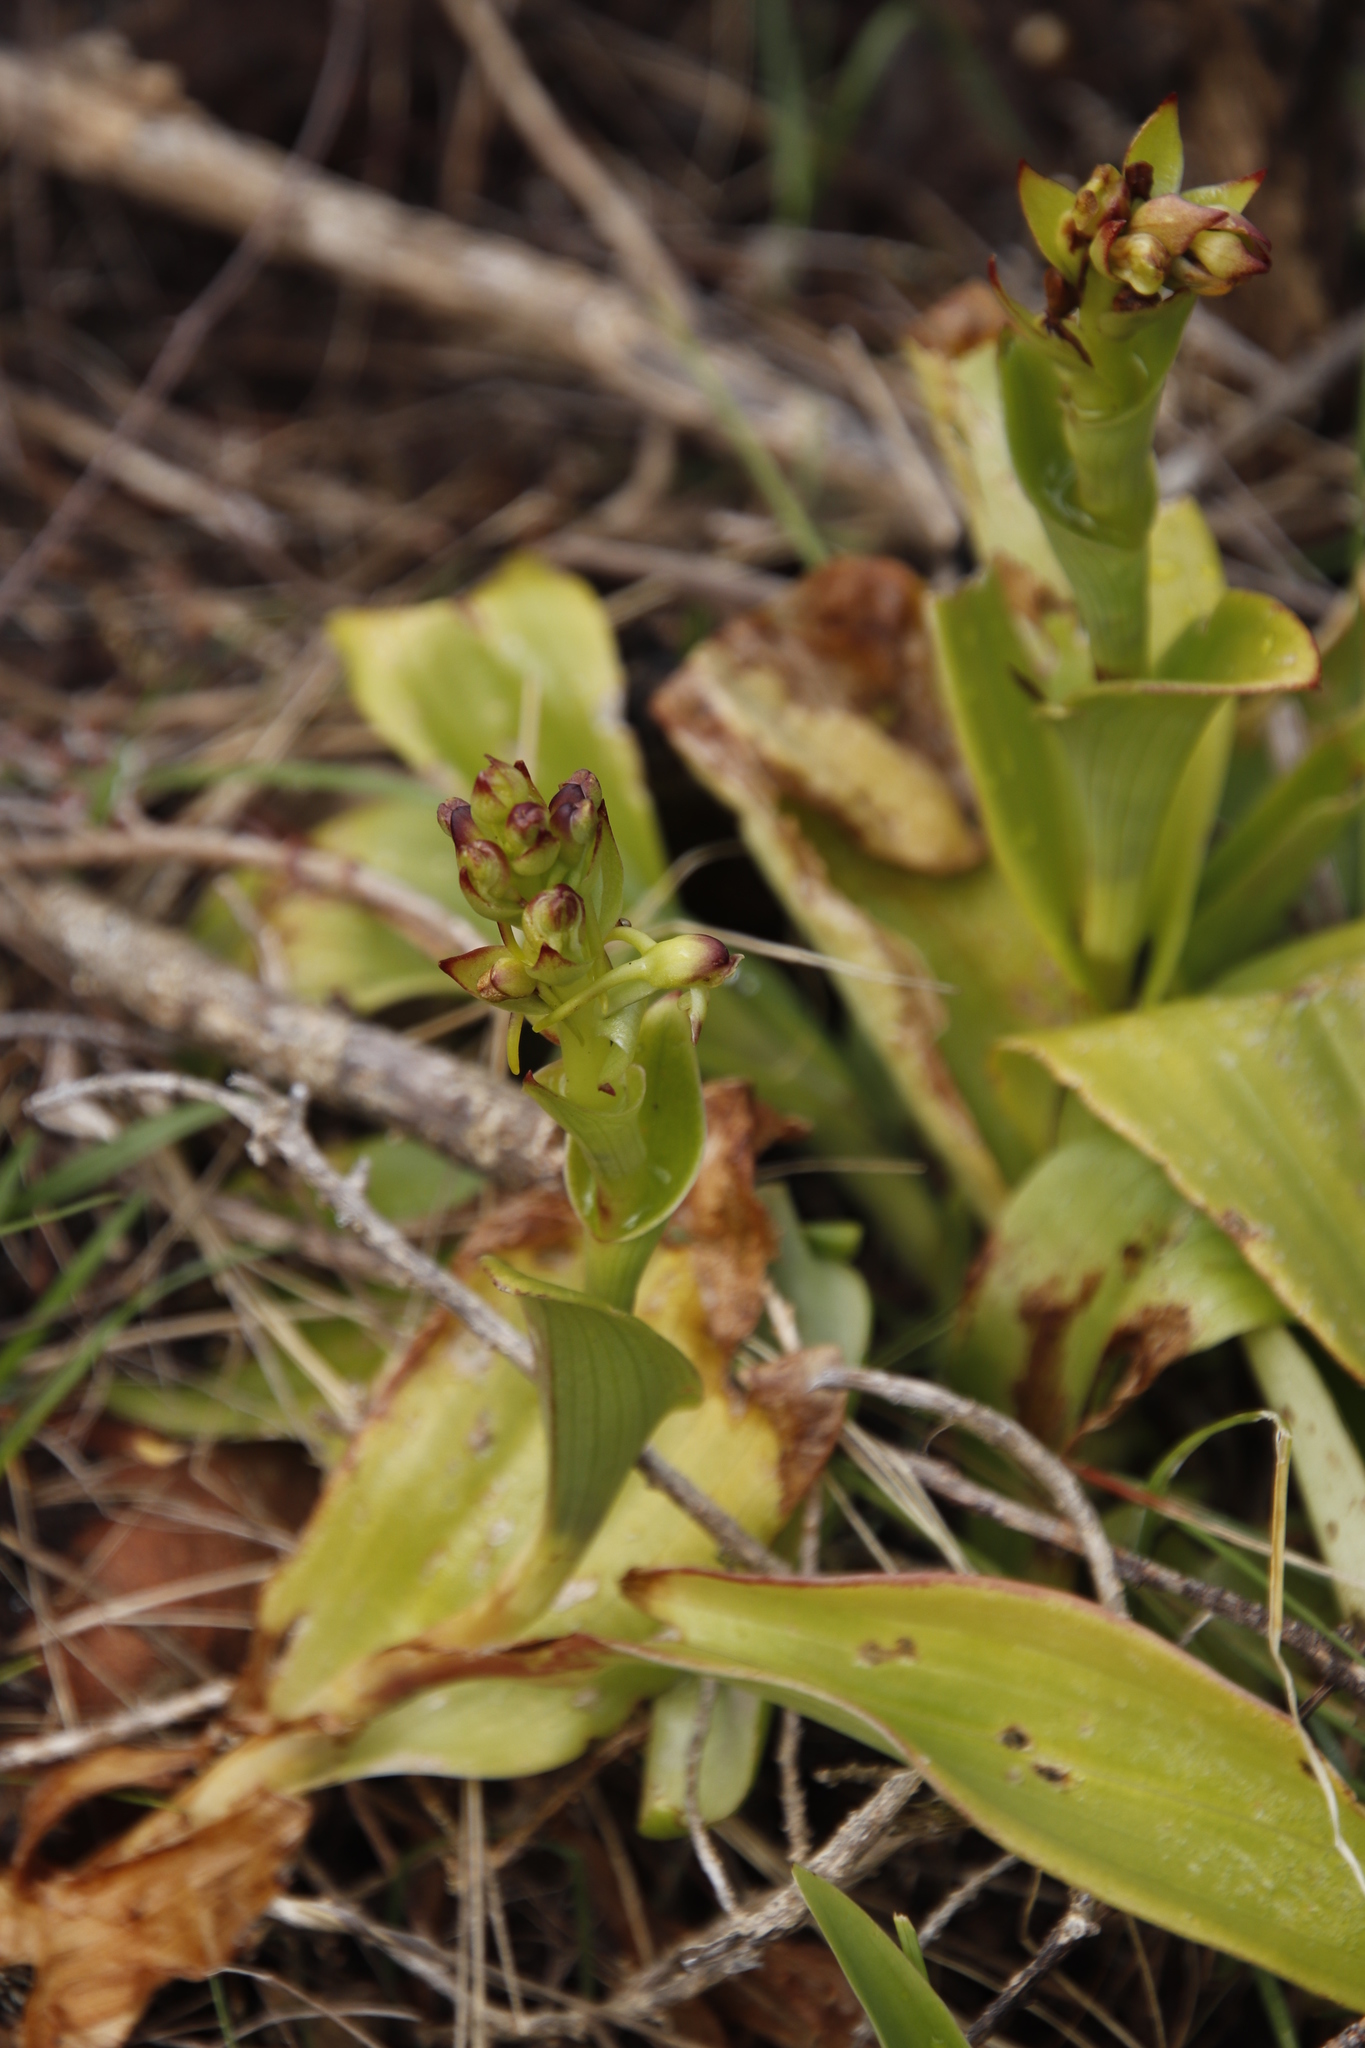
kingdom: Plantae
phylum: Tracheophyta
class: Liliopsida
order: Asparagales
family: Orchidaceae
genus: Satyrium
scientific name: Satyrium odorum
